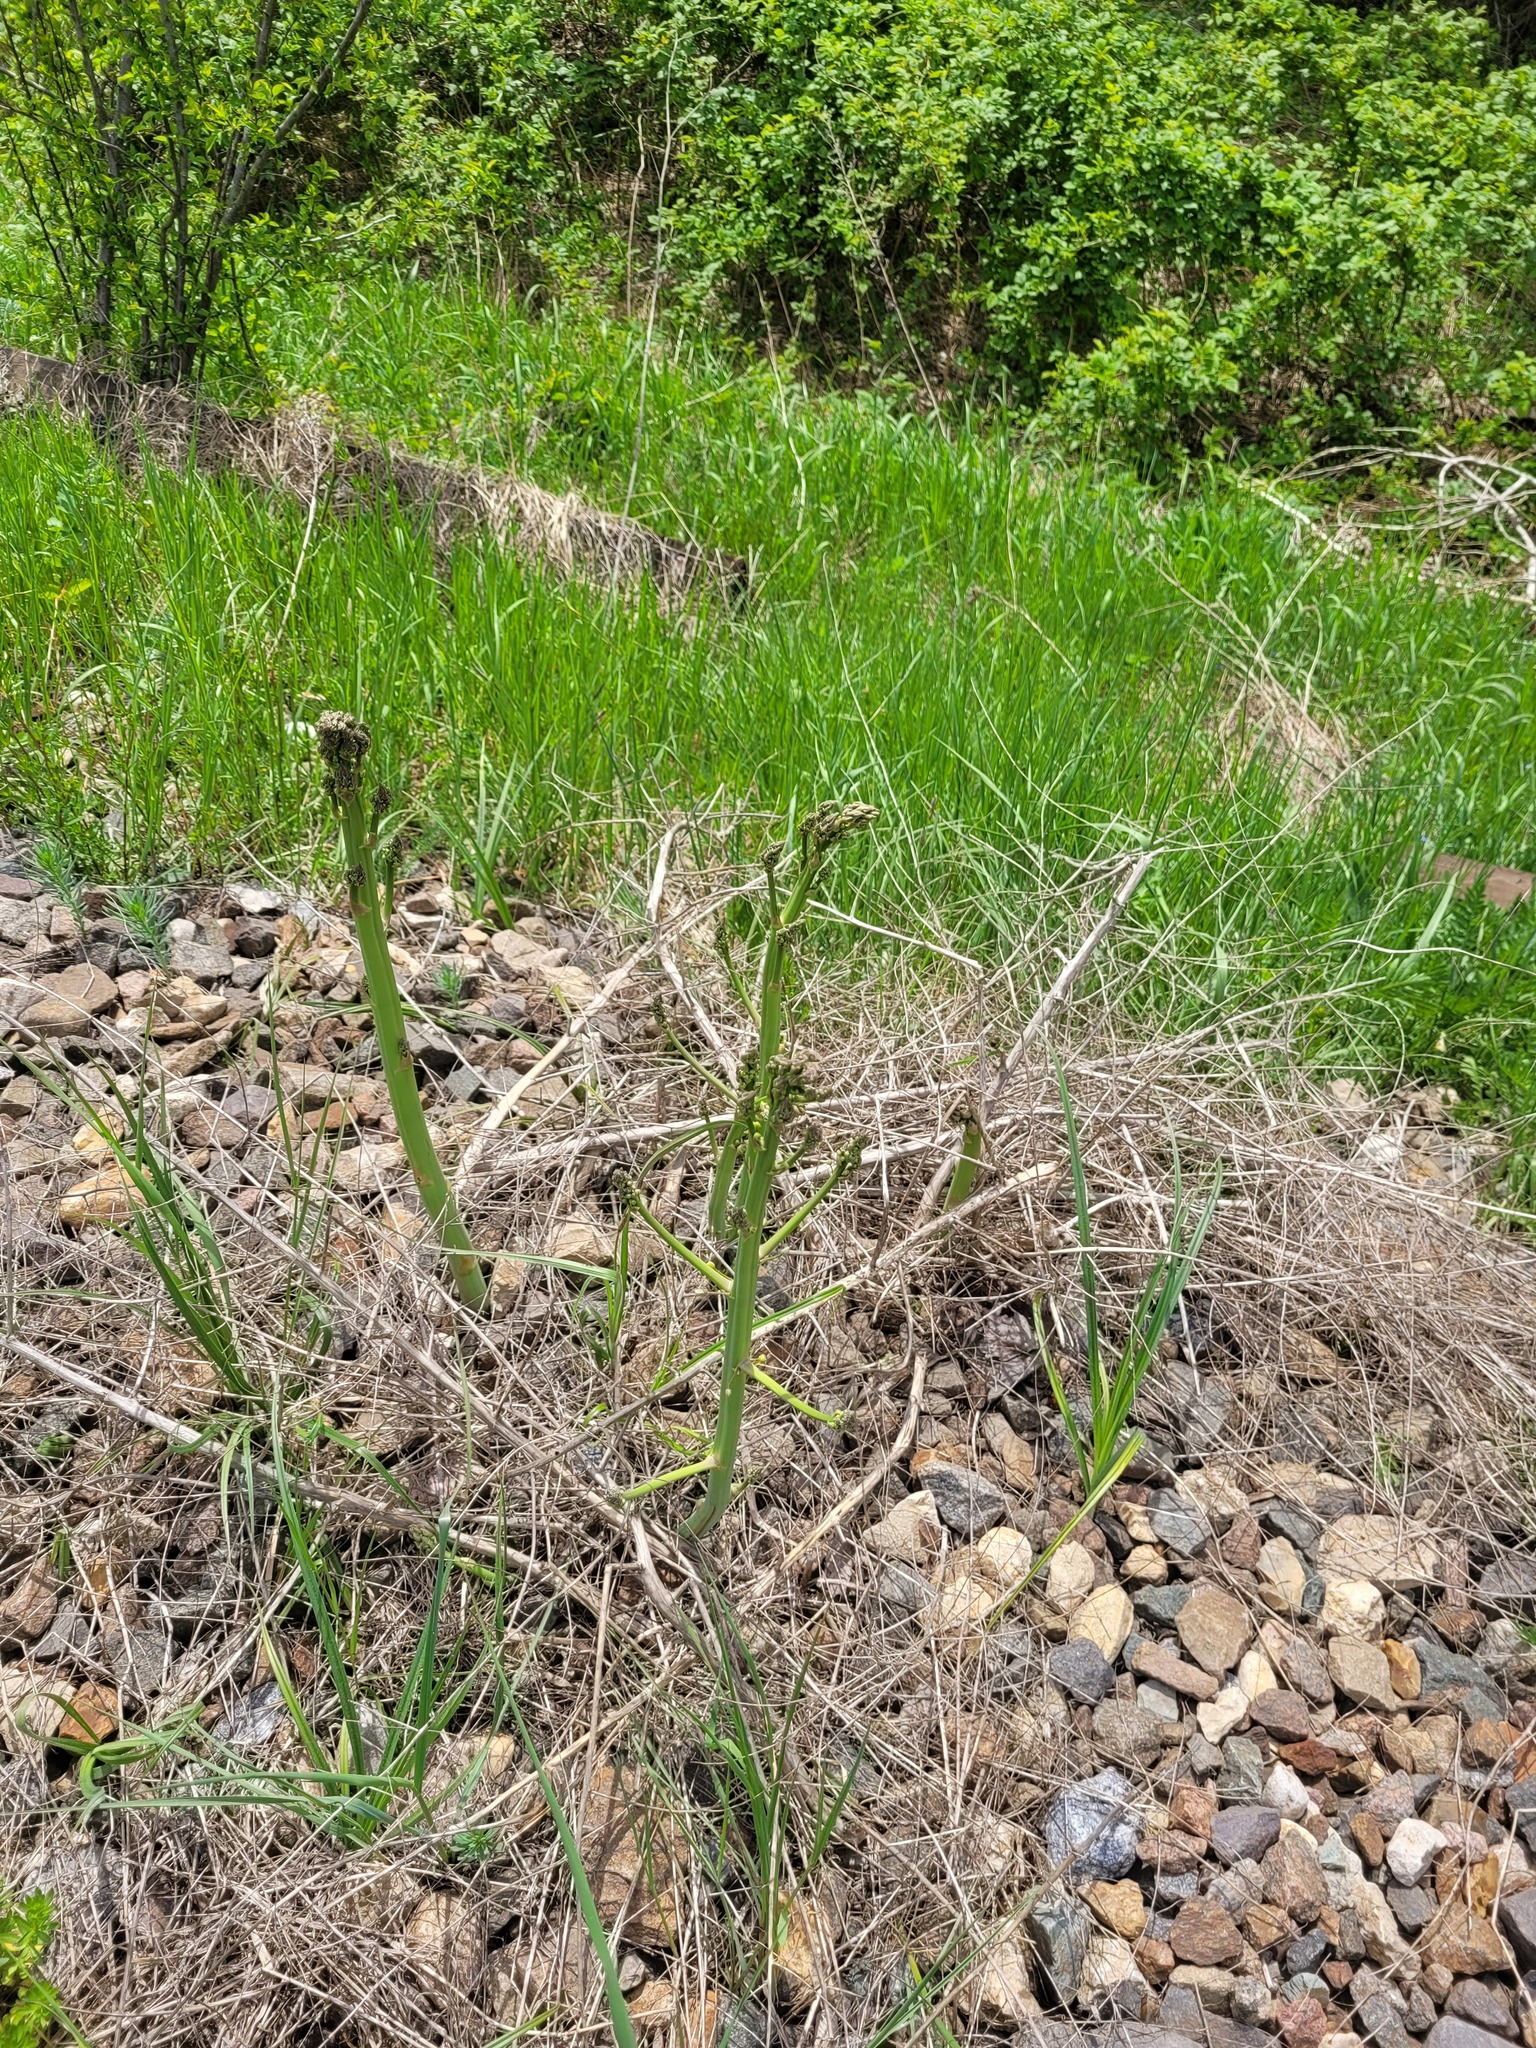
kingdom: Plantae
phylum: Tracheophyta
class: Liliopsida
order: Asparagales
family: Asparagaceae
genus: Asparagus
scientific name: Asparagus officinalis
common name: Garden asparagus
